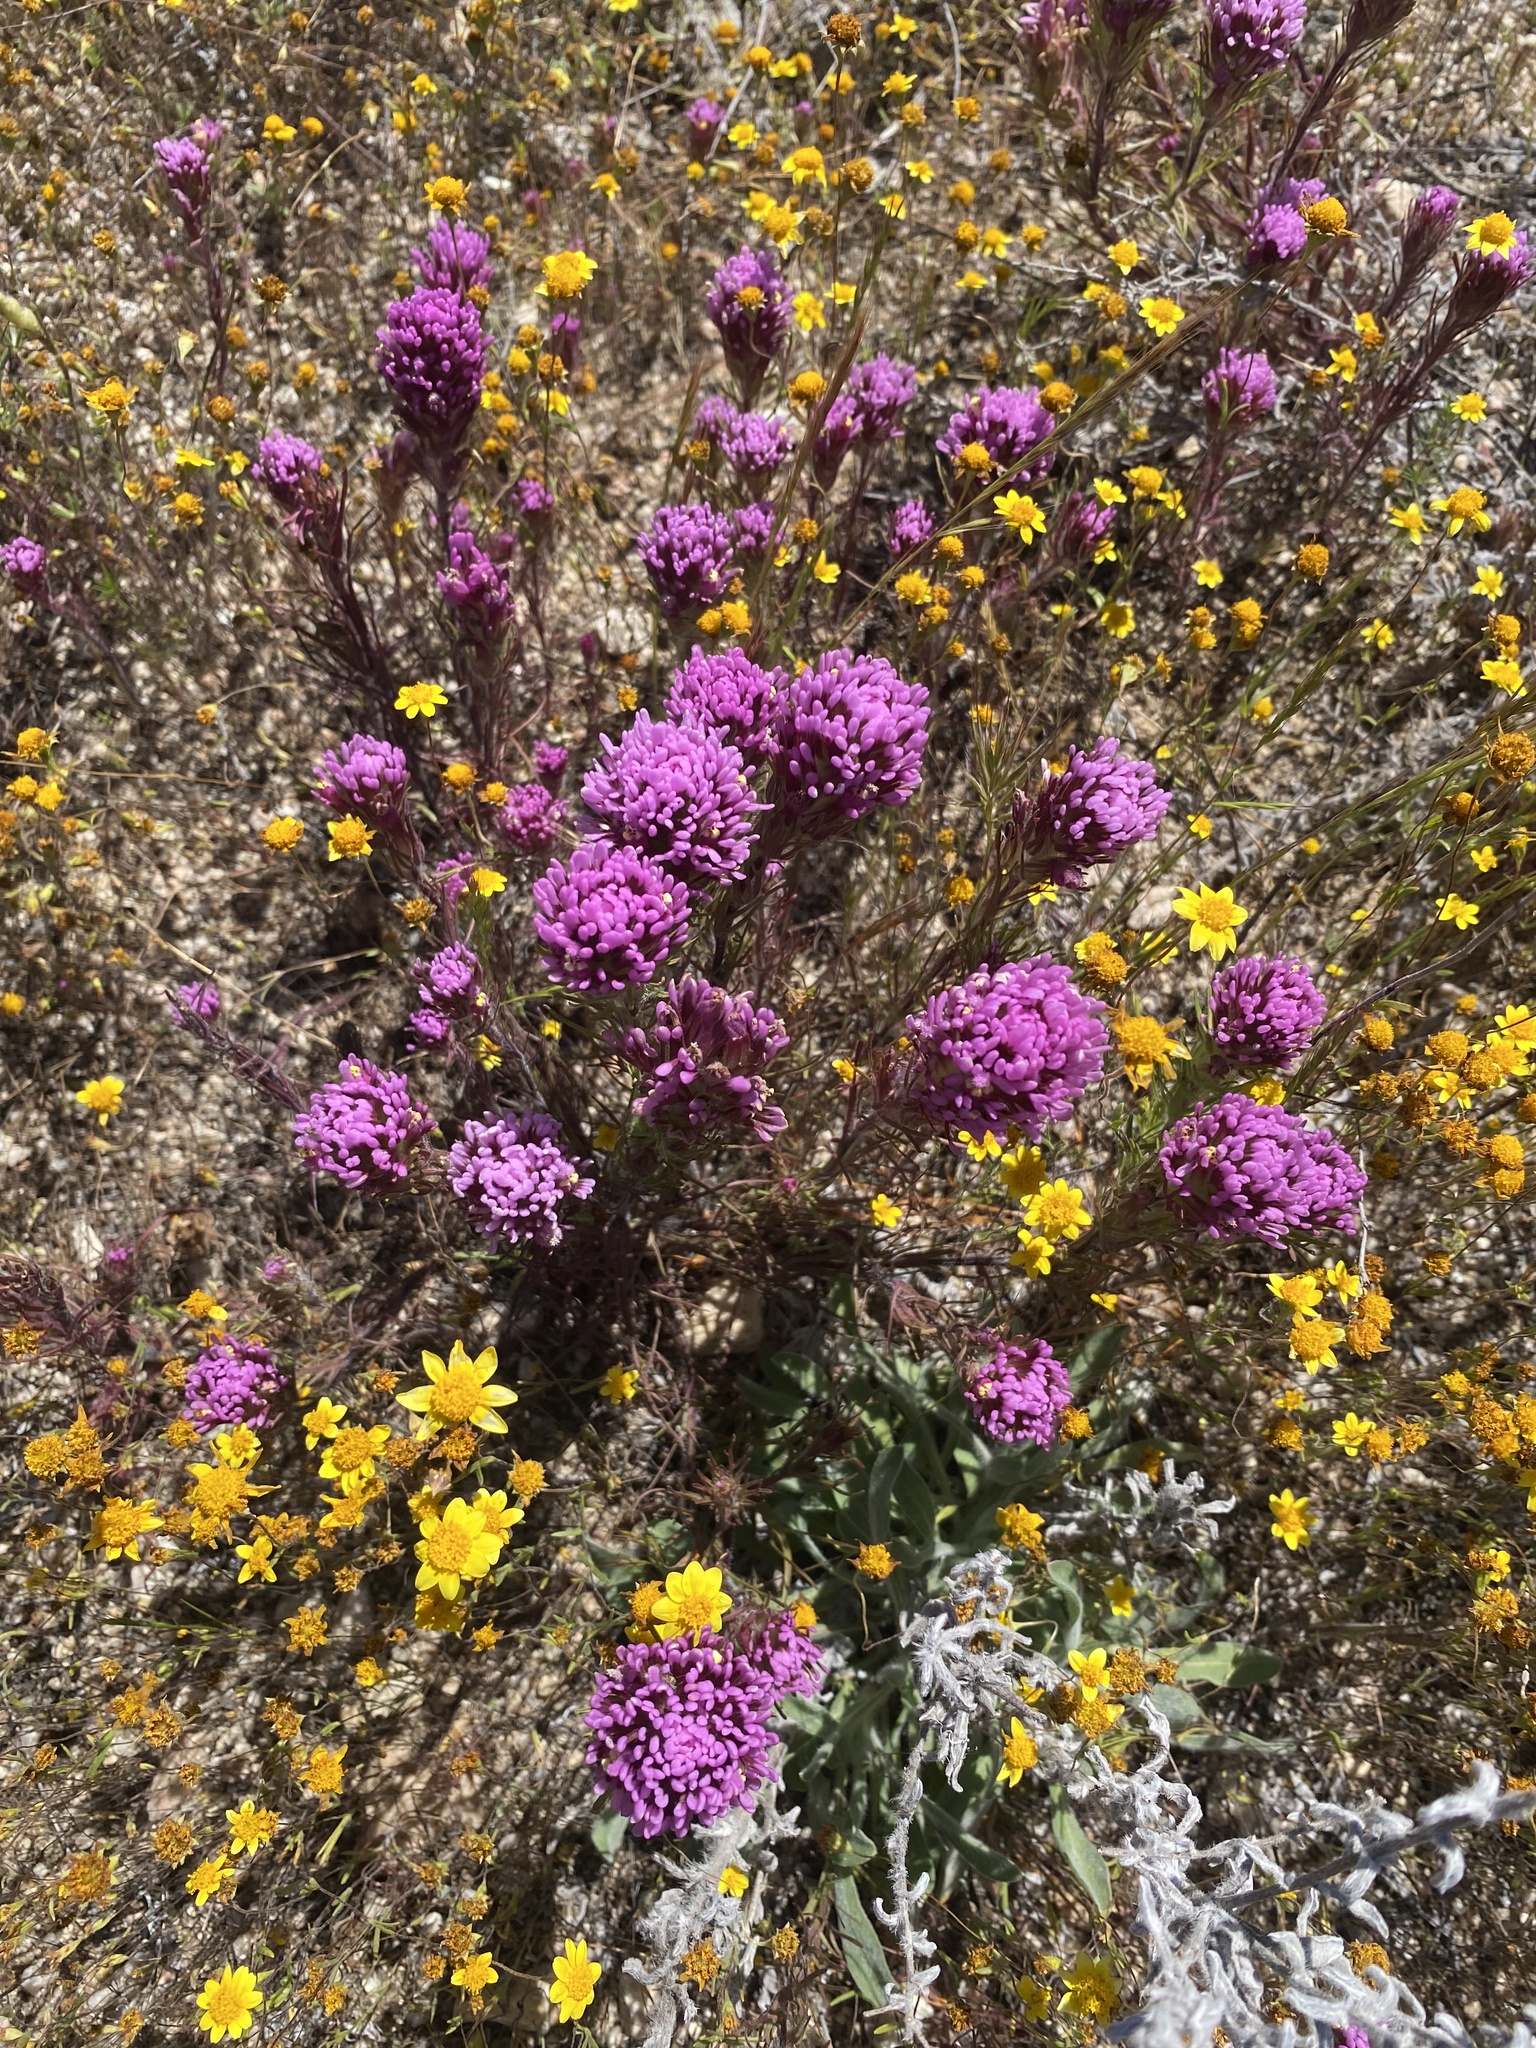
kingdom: Plantae
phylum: Tracheophyta
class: Magnoliopsida
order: Lamiales
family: Orobanchaceae
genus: Castilleja
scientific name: Castilleja exserta
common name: Purple owl-clover
